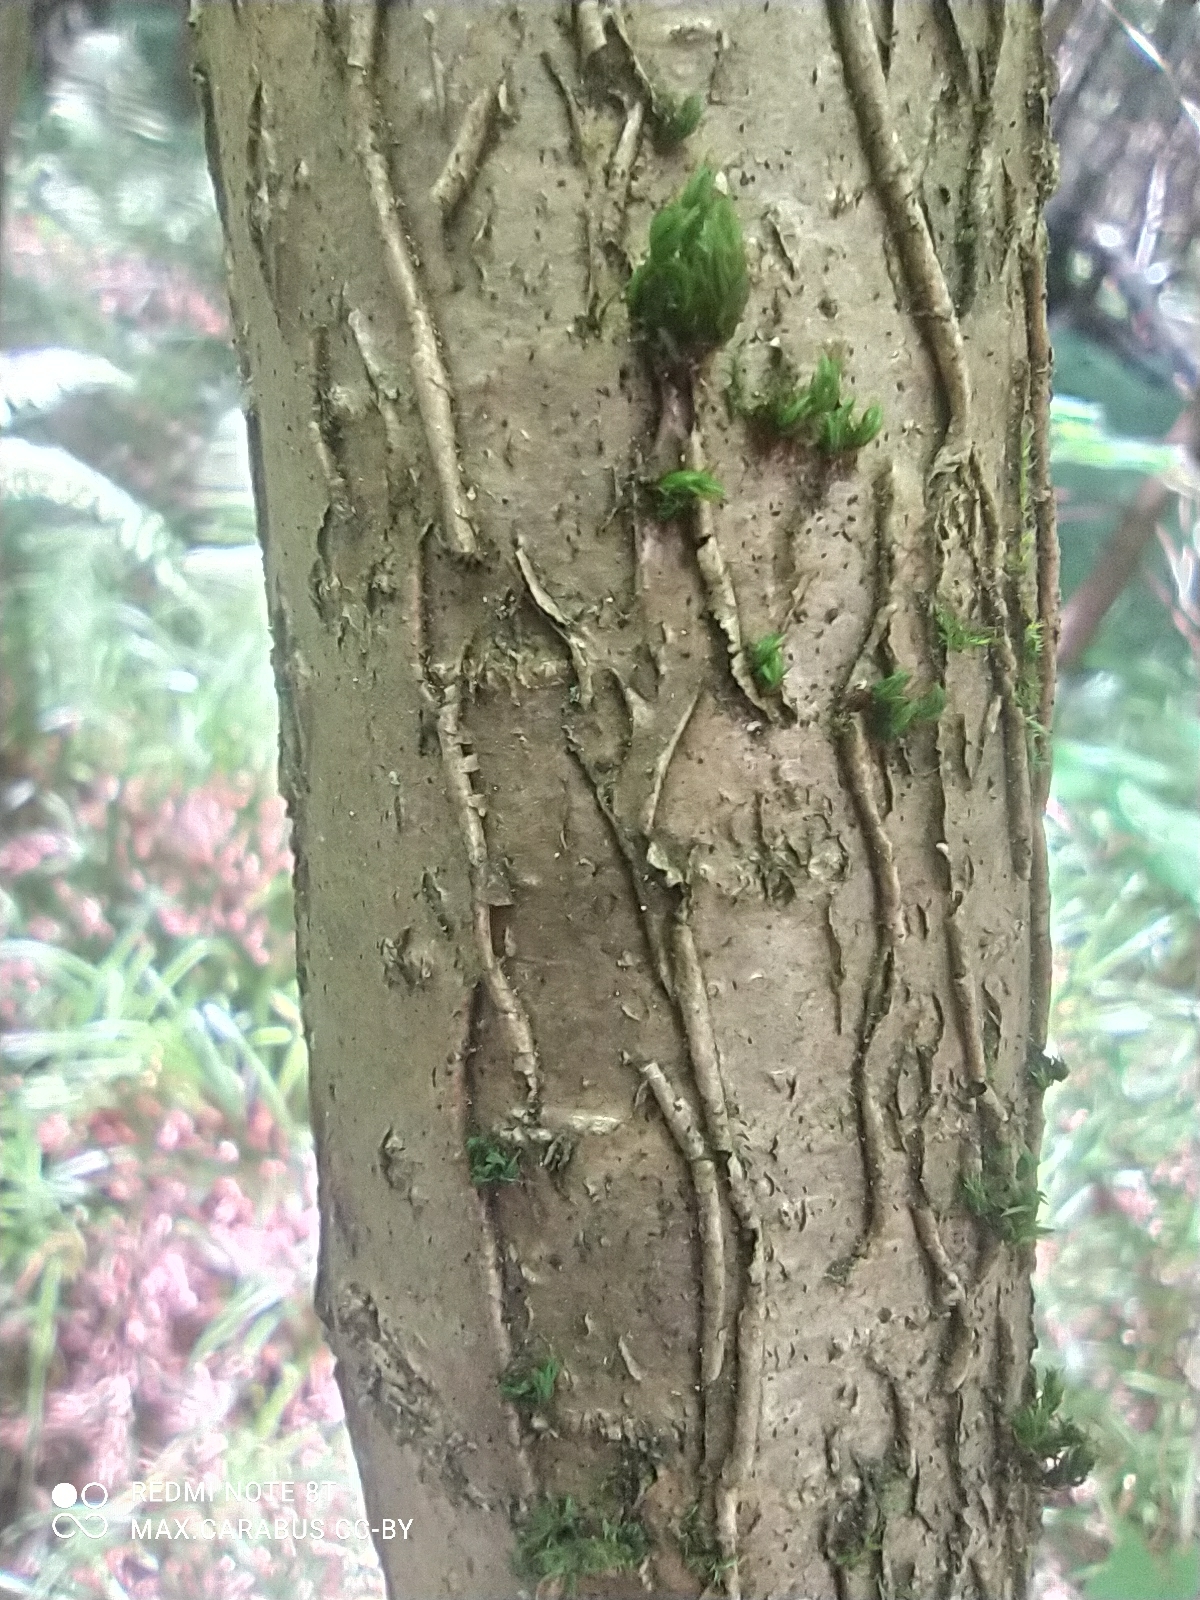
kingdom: Plantae
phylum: Tracheophyta
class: Magnoliopsida
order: Fagales
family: Betulaceae
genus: Corylus
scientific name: Corylus avellana
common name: European hazel
